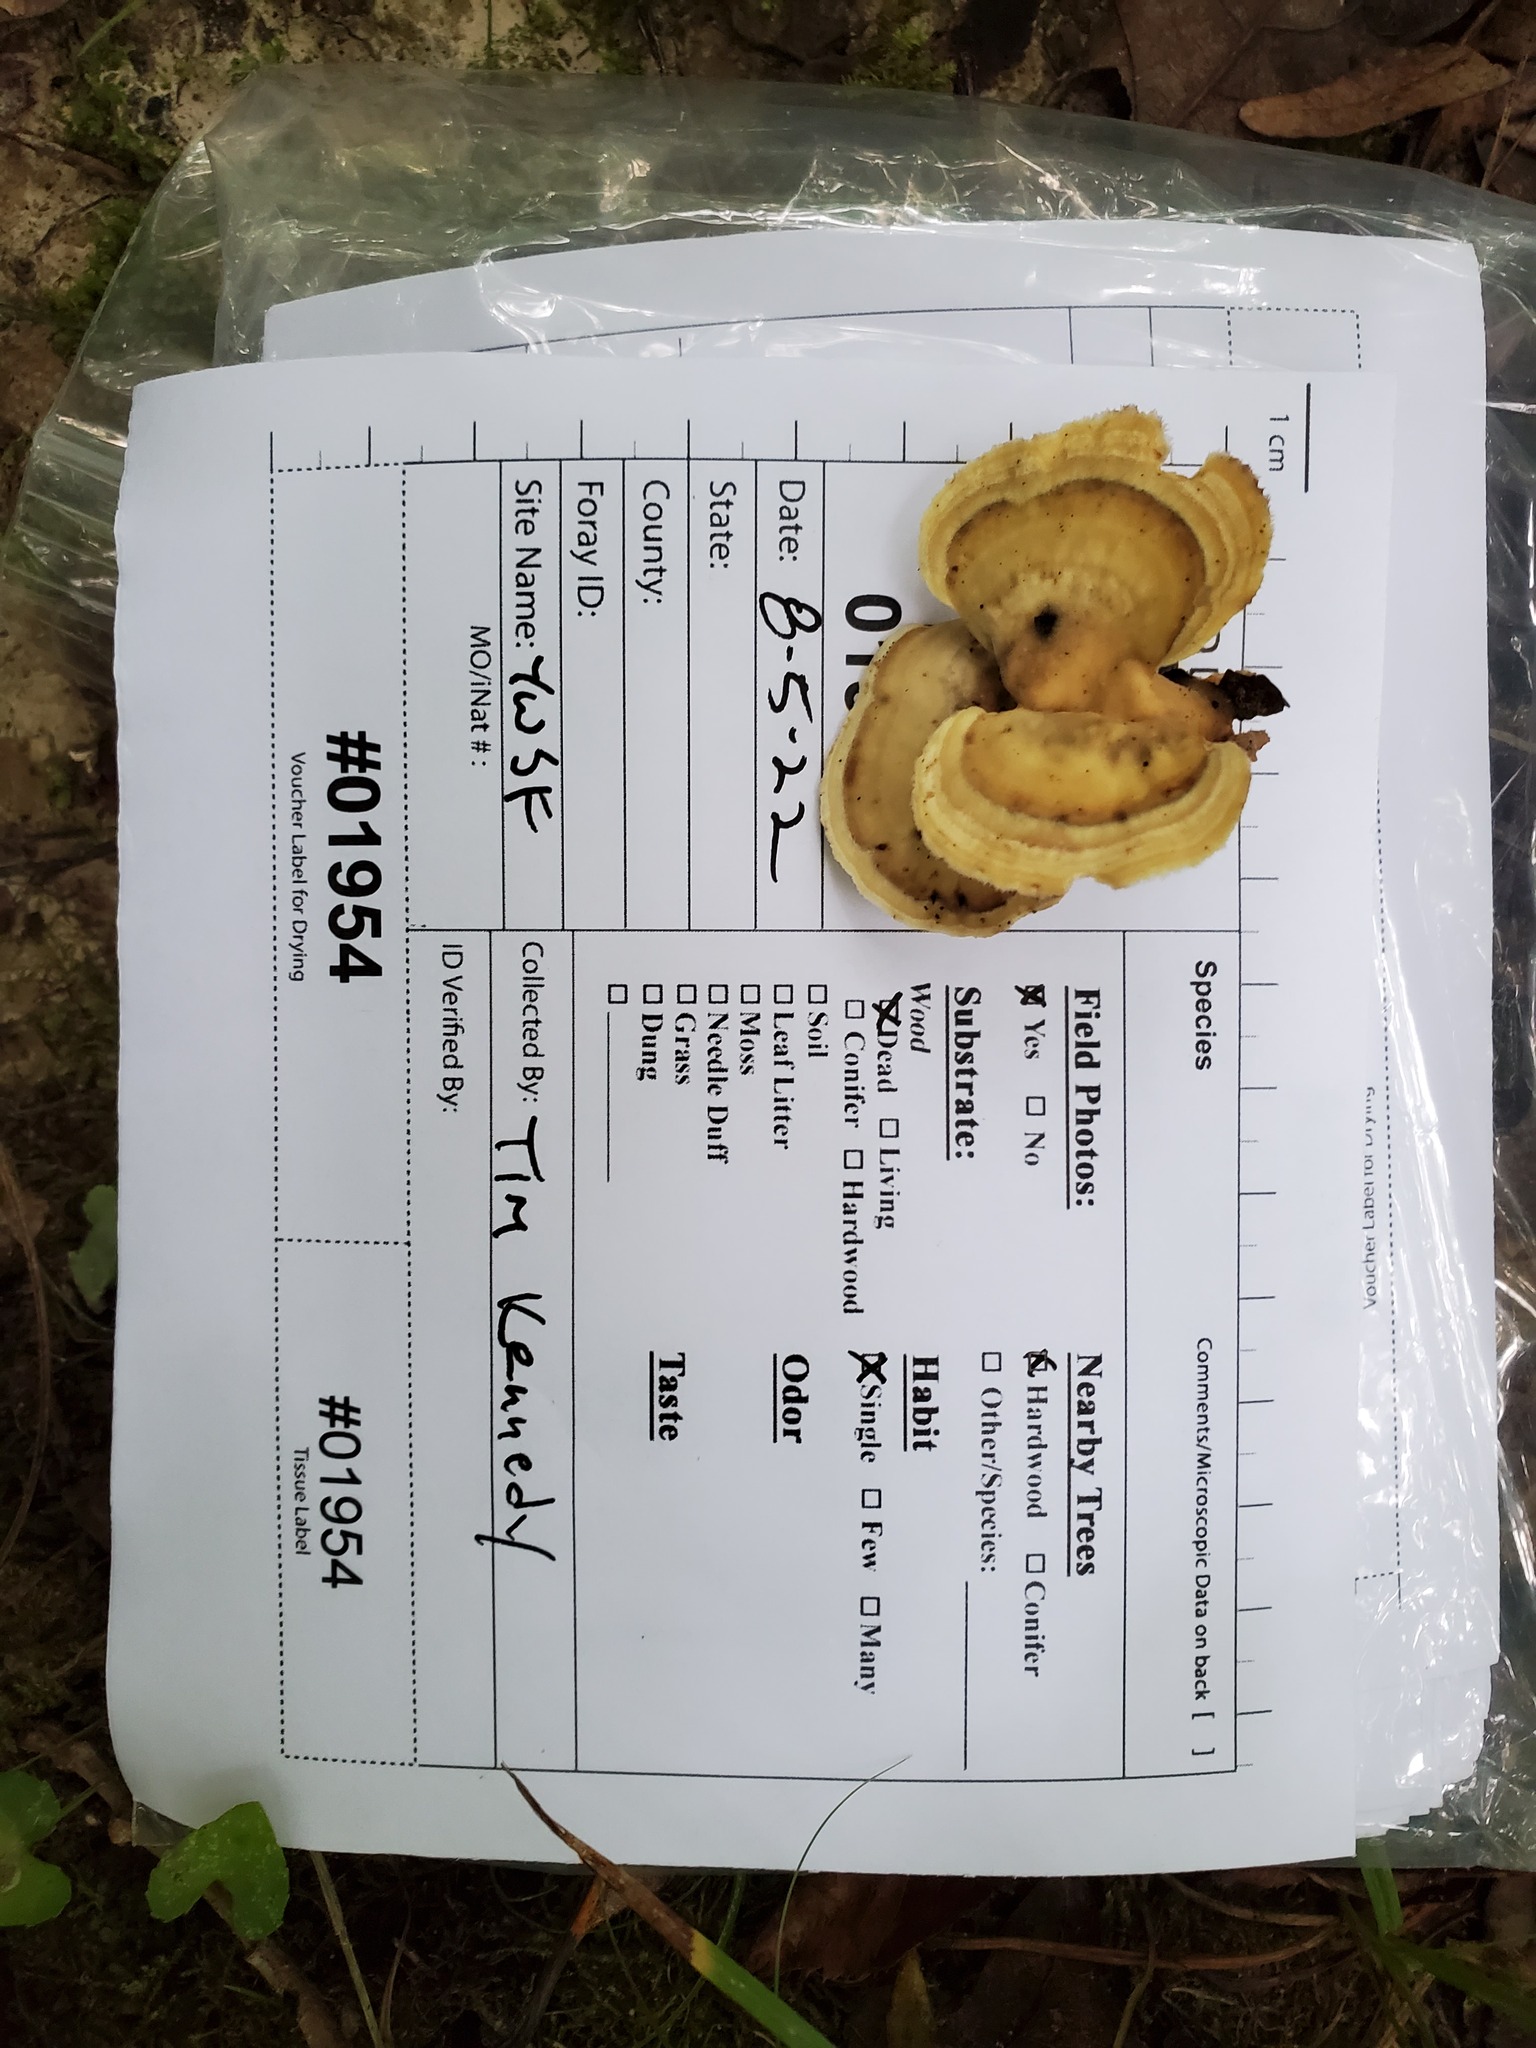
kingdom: Fungi
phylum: Basidiomycota
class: Agaricomycetes
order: Polyporales
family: Steccherinaceae
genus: Mycorrhaphium
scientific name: Mycorrhaphium adustum
